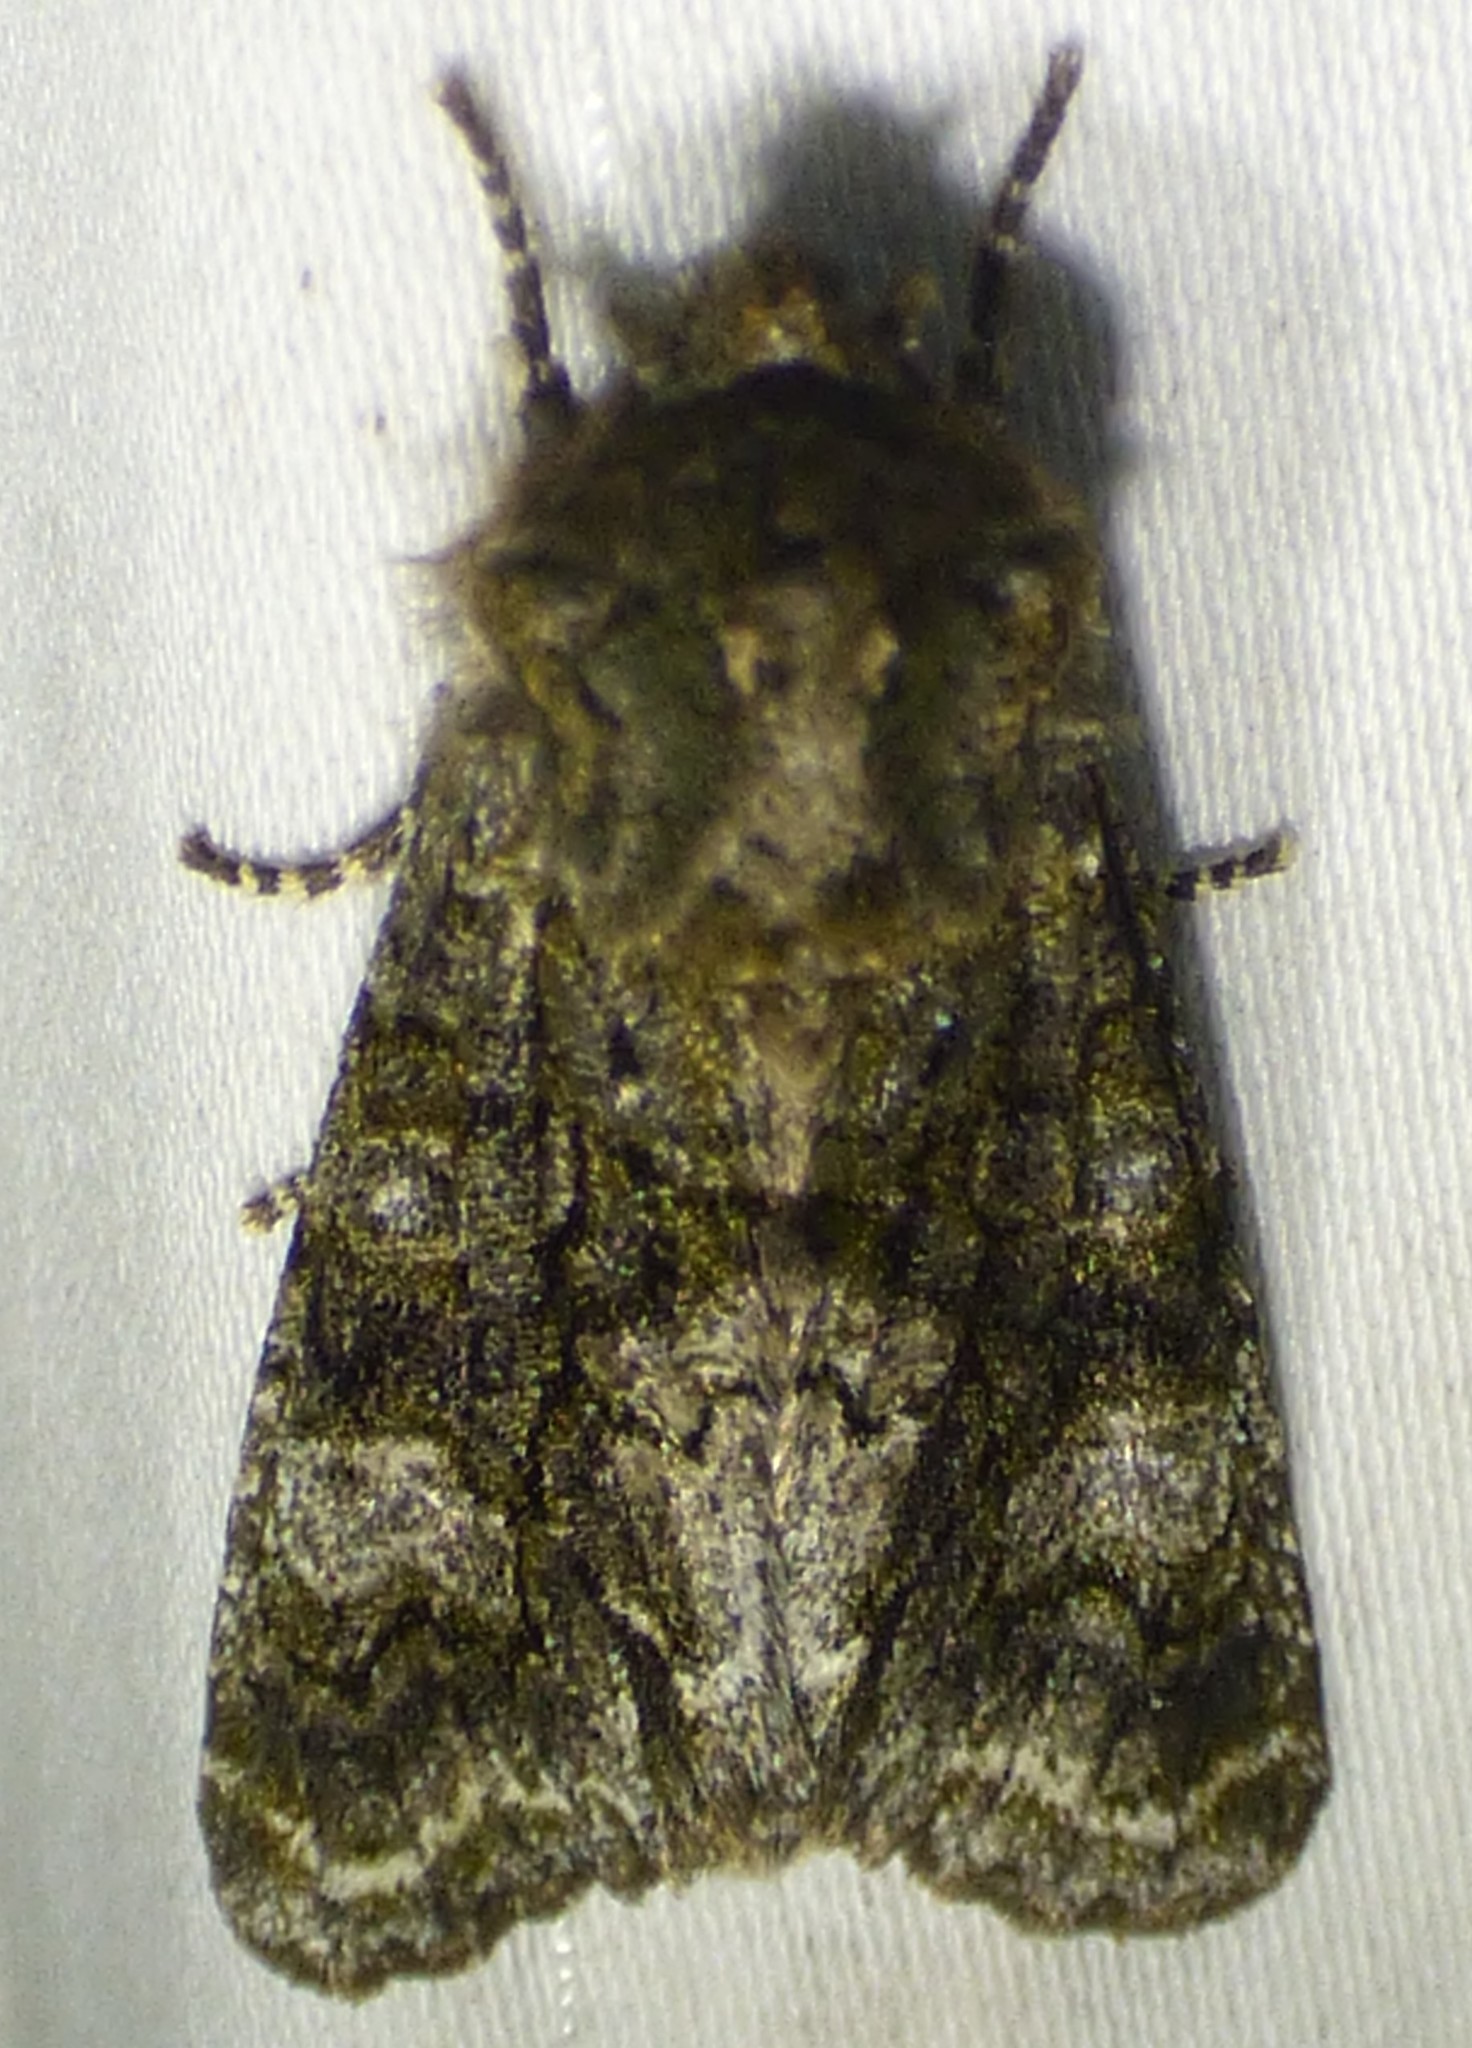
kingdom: Animalia
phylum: Arthropoda
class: Insecta
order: Lepidoptera
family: Noctuidae
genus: Psaphida
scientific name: Psaphida grotei
